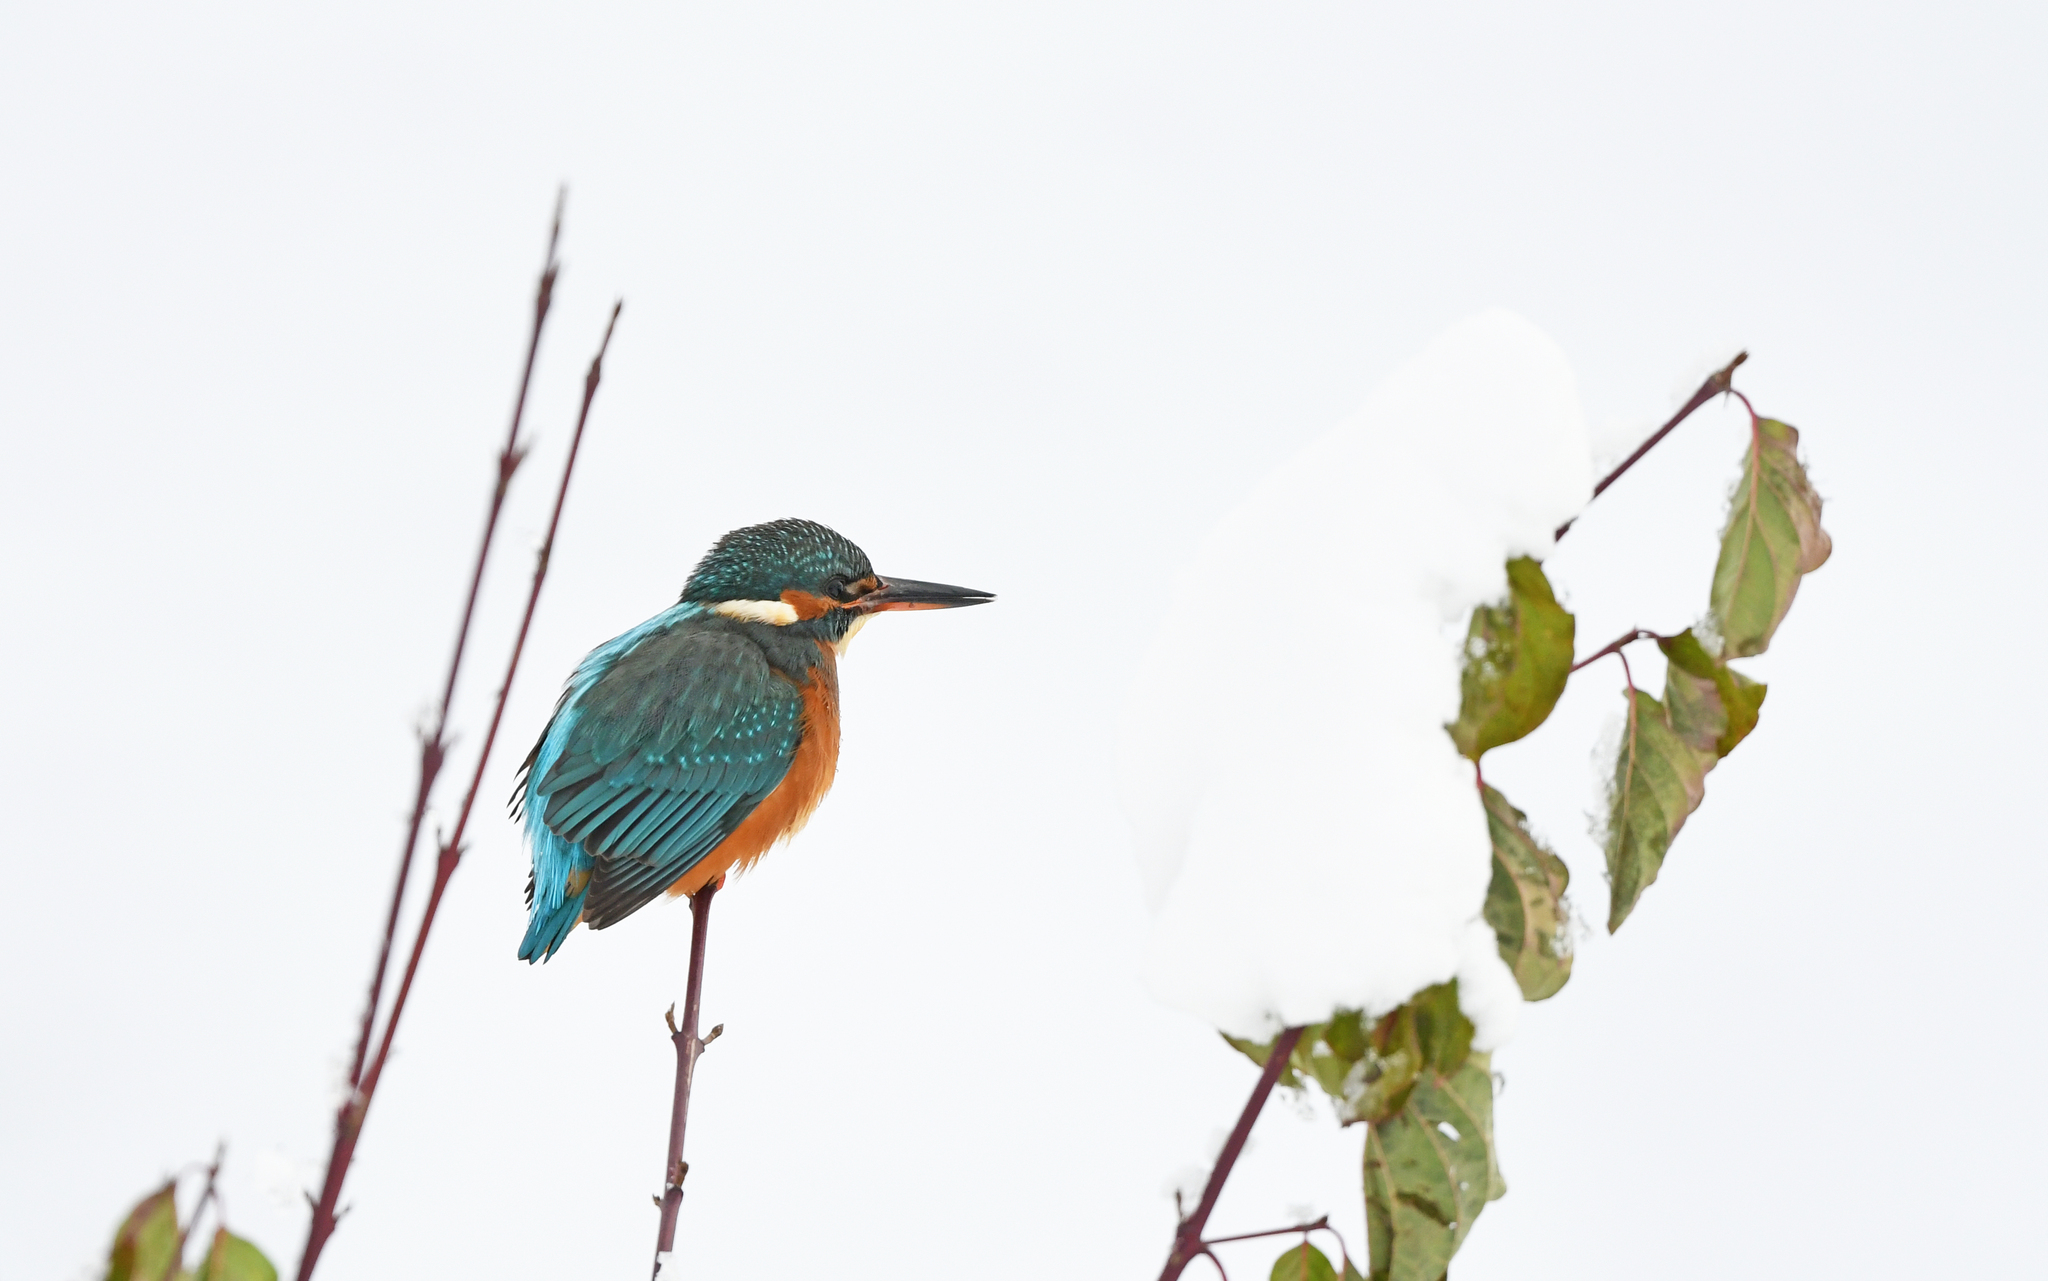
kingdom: Animalia
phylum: Chordata
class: Aves
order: Coraciiformes
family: Alcedinidae
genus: Alcedo
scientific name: Alcedo atthis
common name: Common kingfisher
